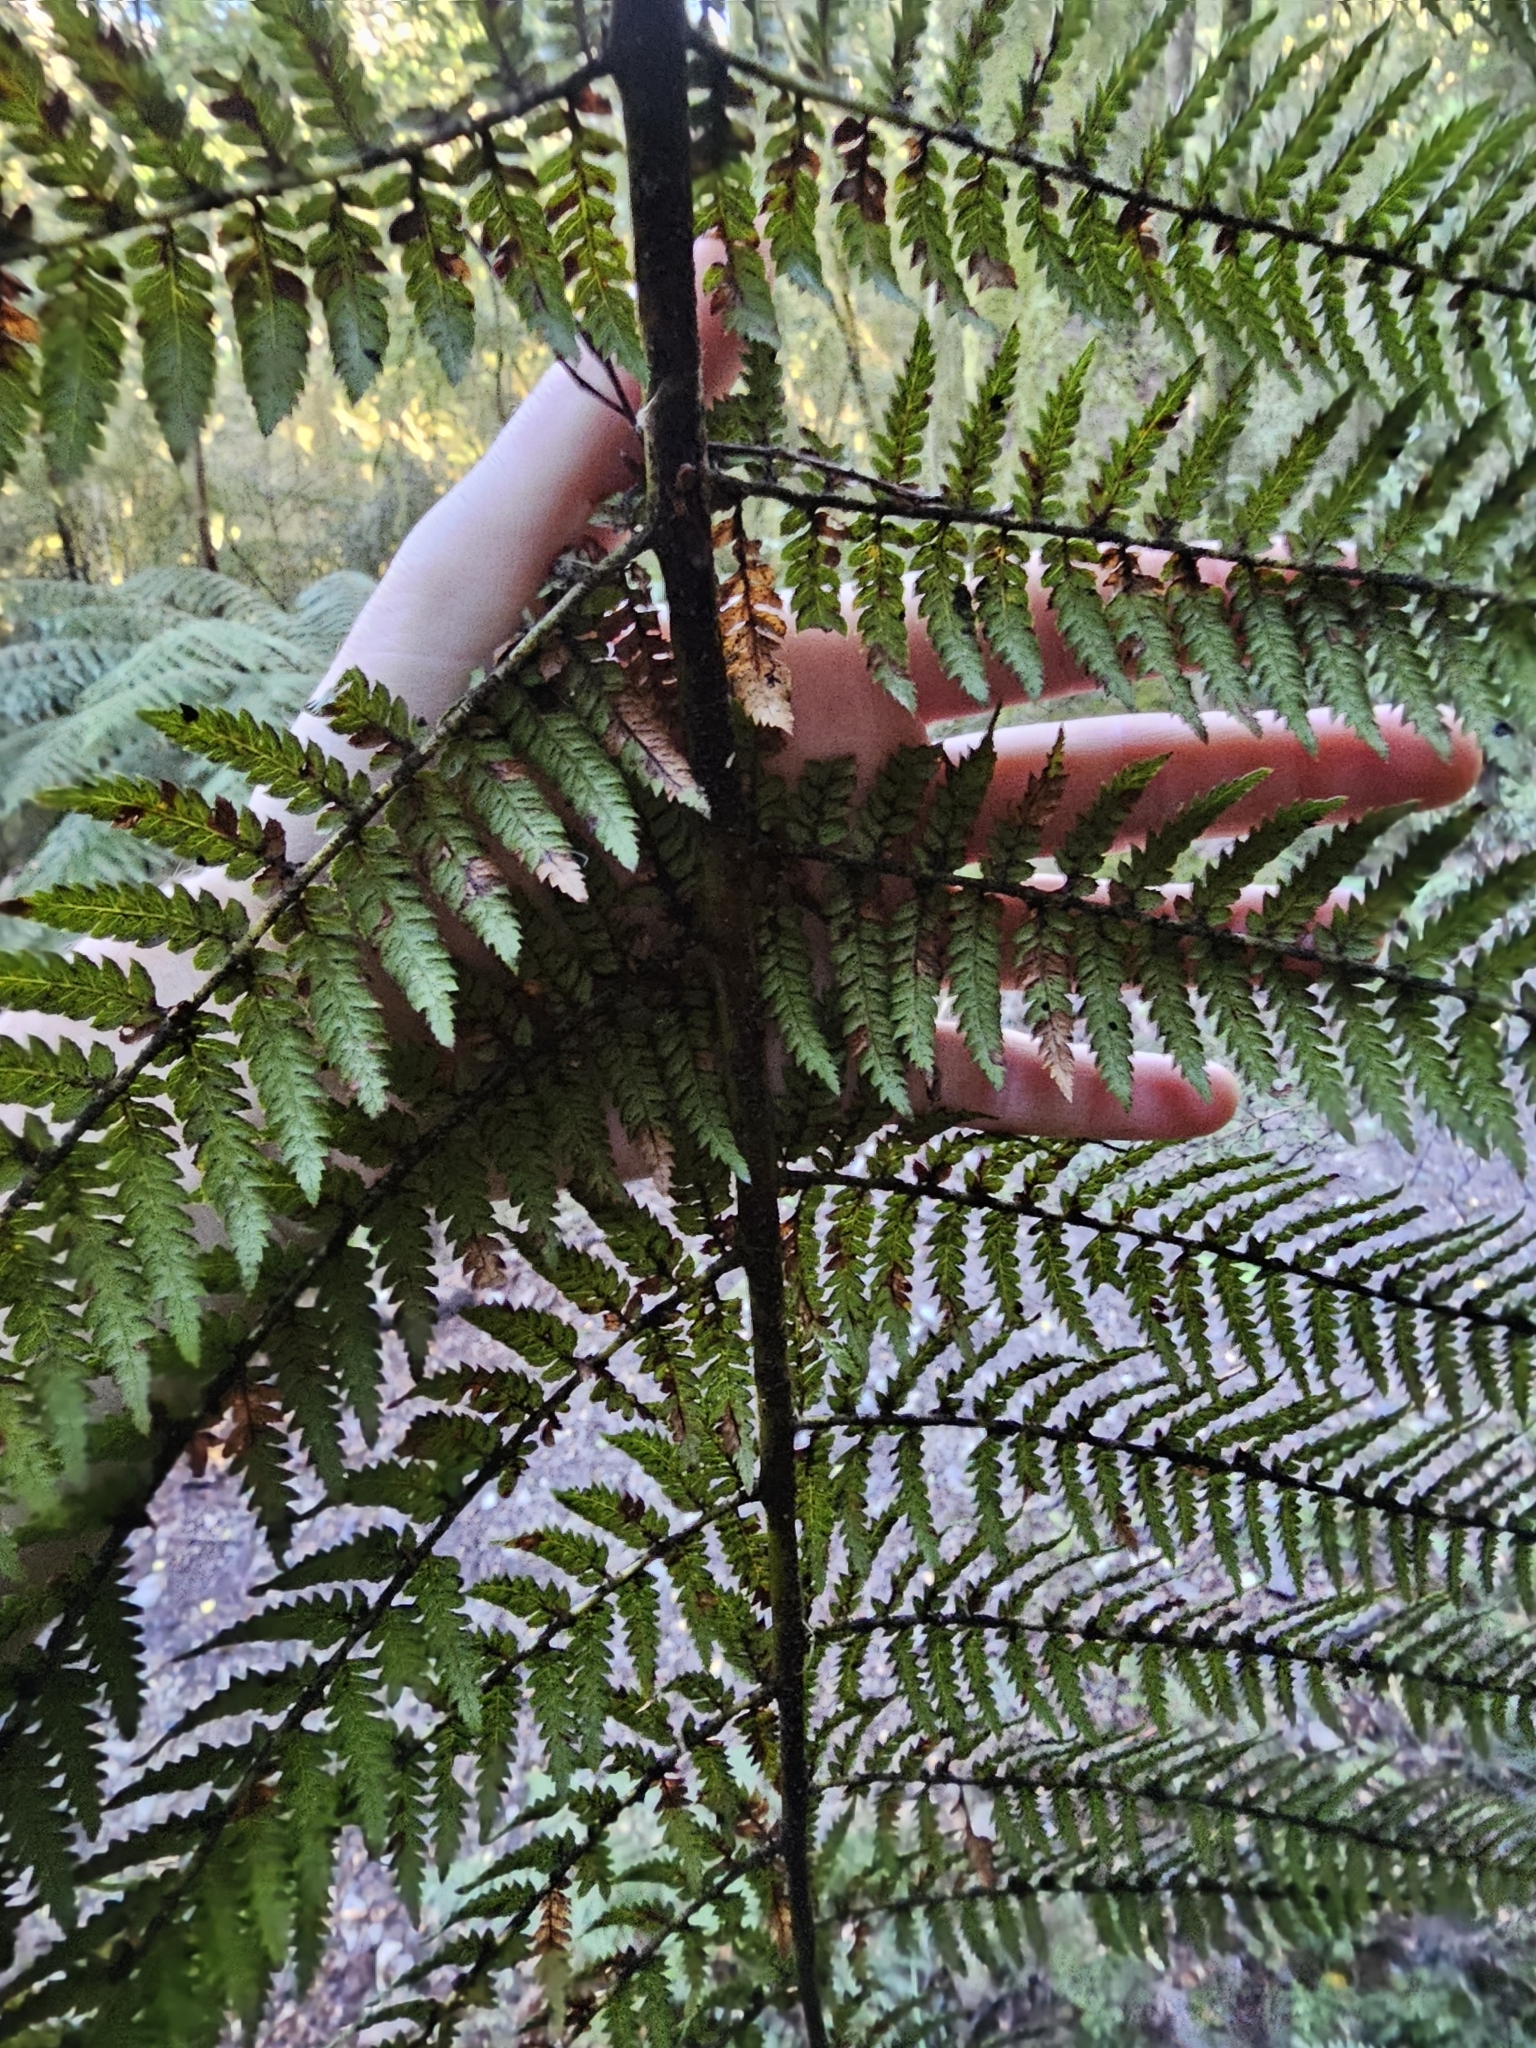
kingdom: Plantae
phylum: Tracheophyta
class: Polypodiopsida
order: Cyatheales
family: Dicksoniaceae
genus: Dicksonia
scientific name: Dicksonia fibrosa
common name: Golden tree fern
